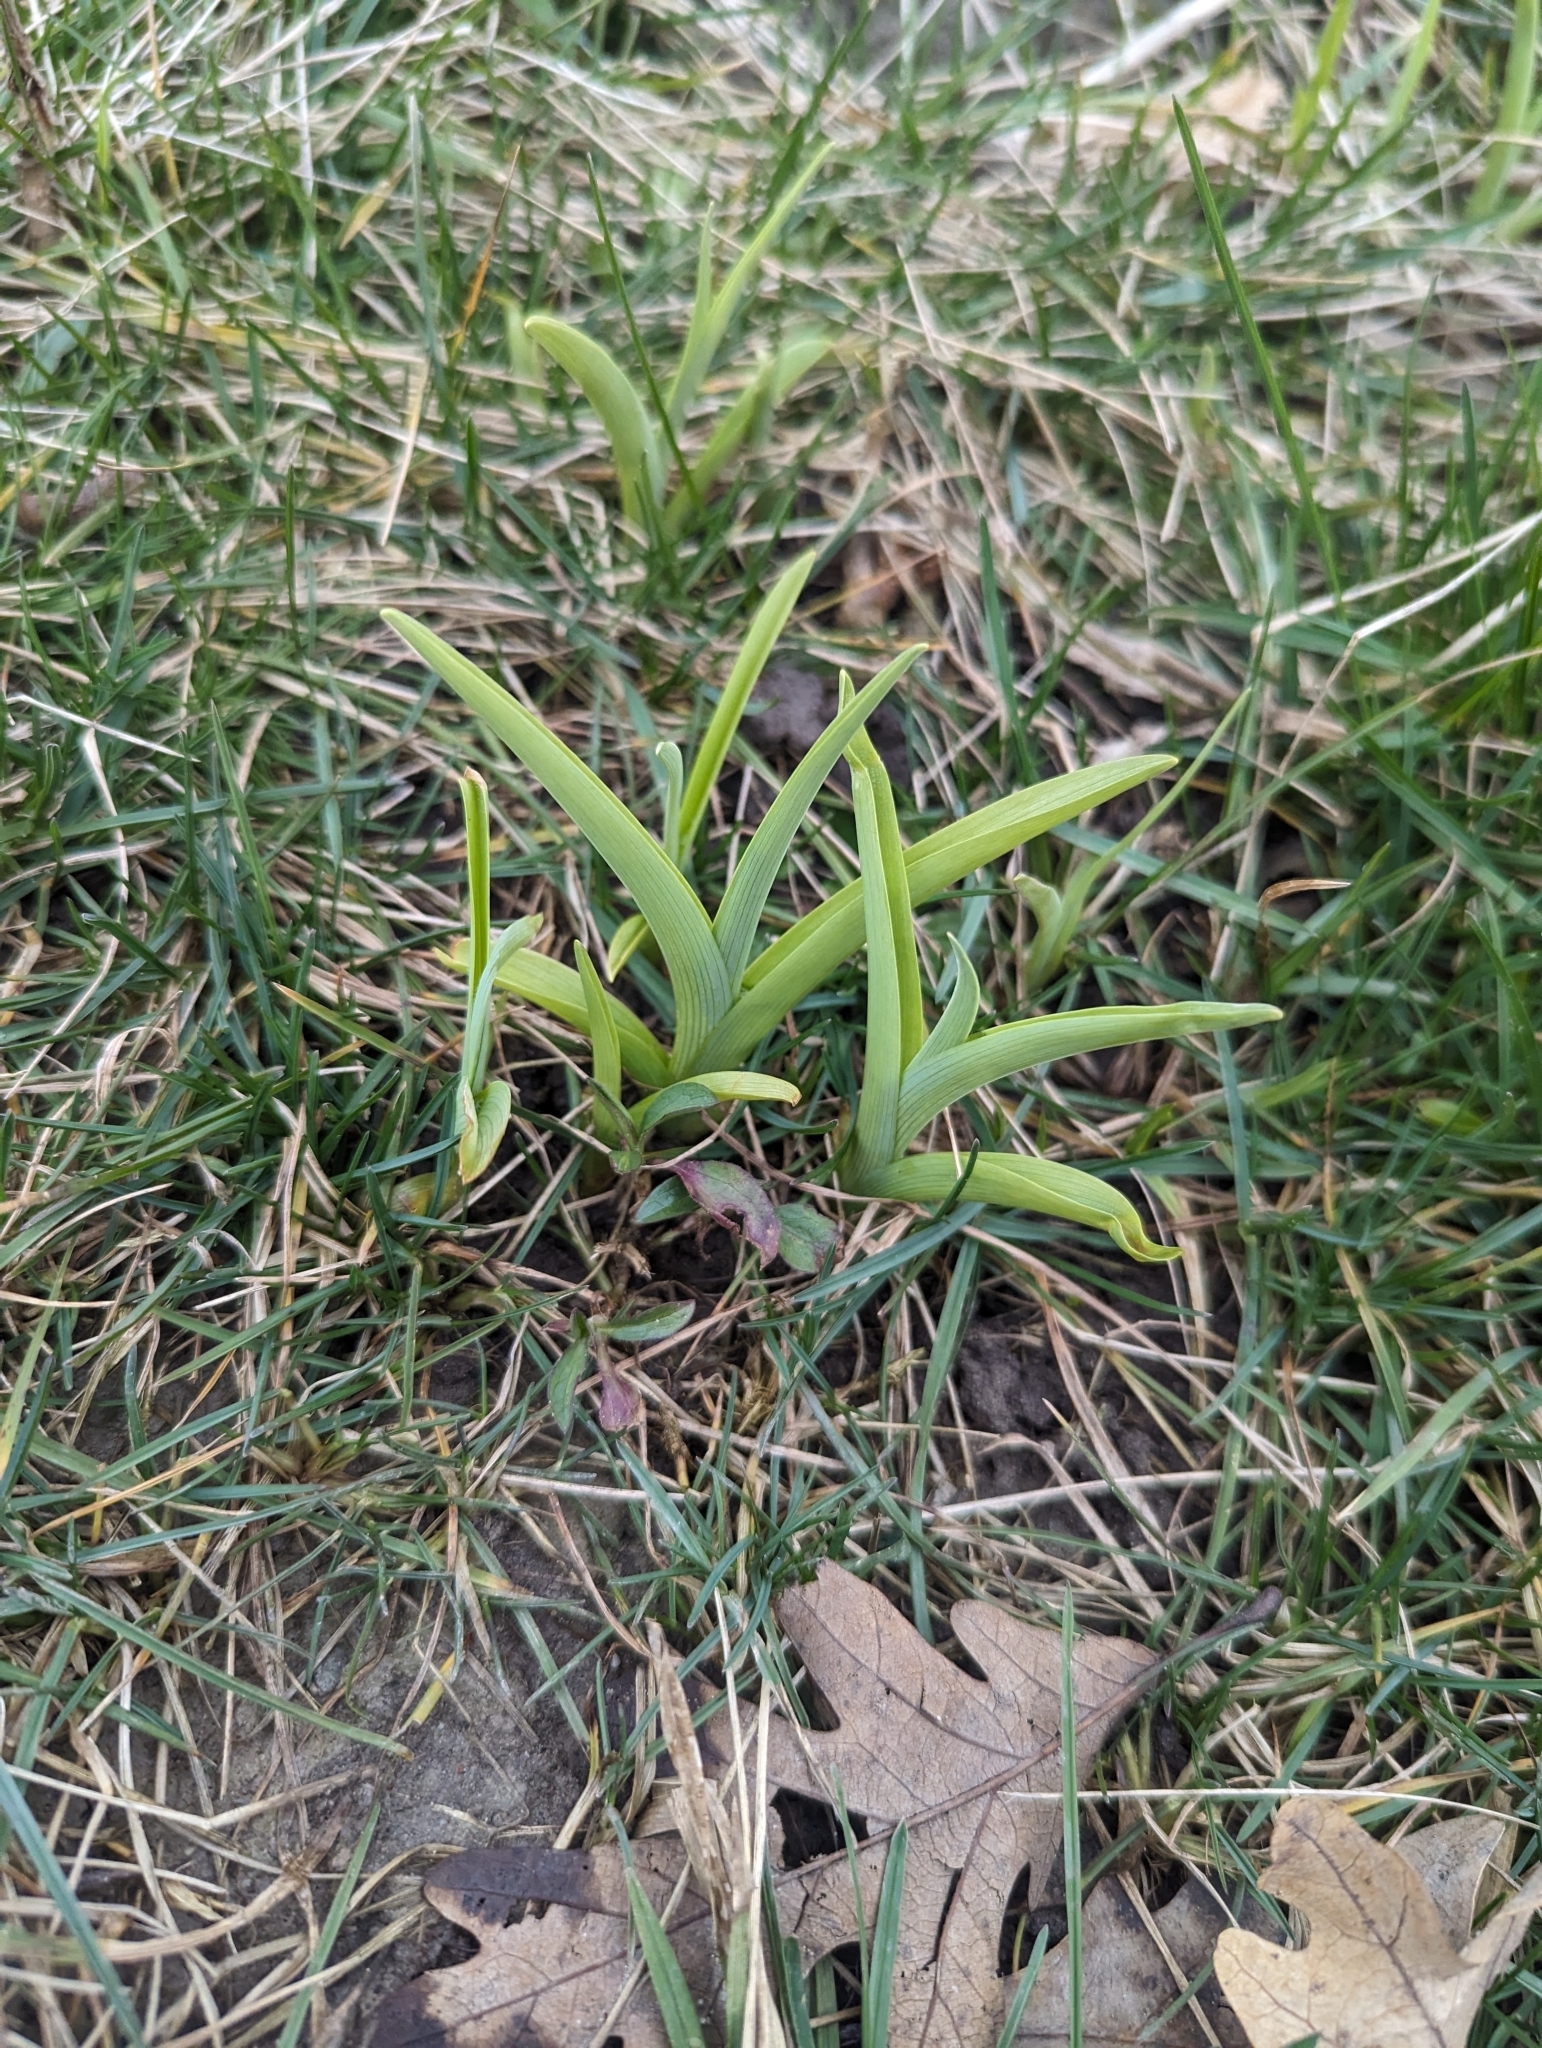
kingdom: Plantae
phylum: Tracheophyta
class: Liliopsida
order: Asparagales
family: Asphodelaceae
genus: Hemerocallis
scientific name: Hemerocallis fulva
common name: Orange day-lily
